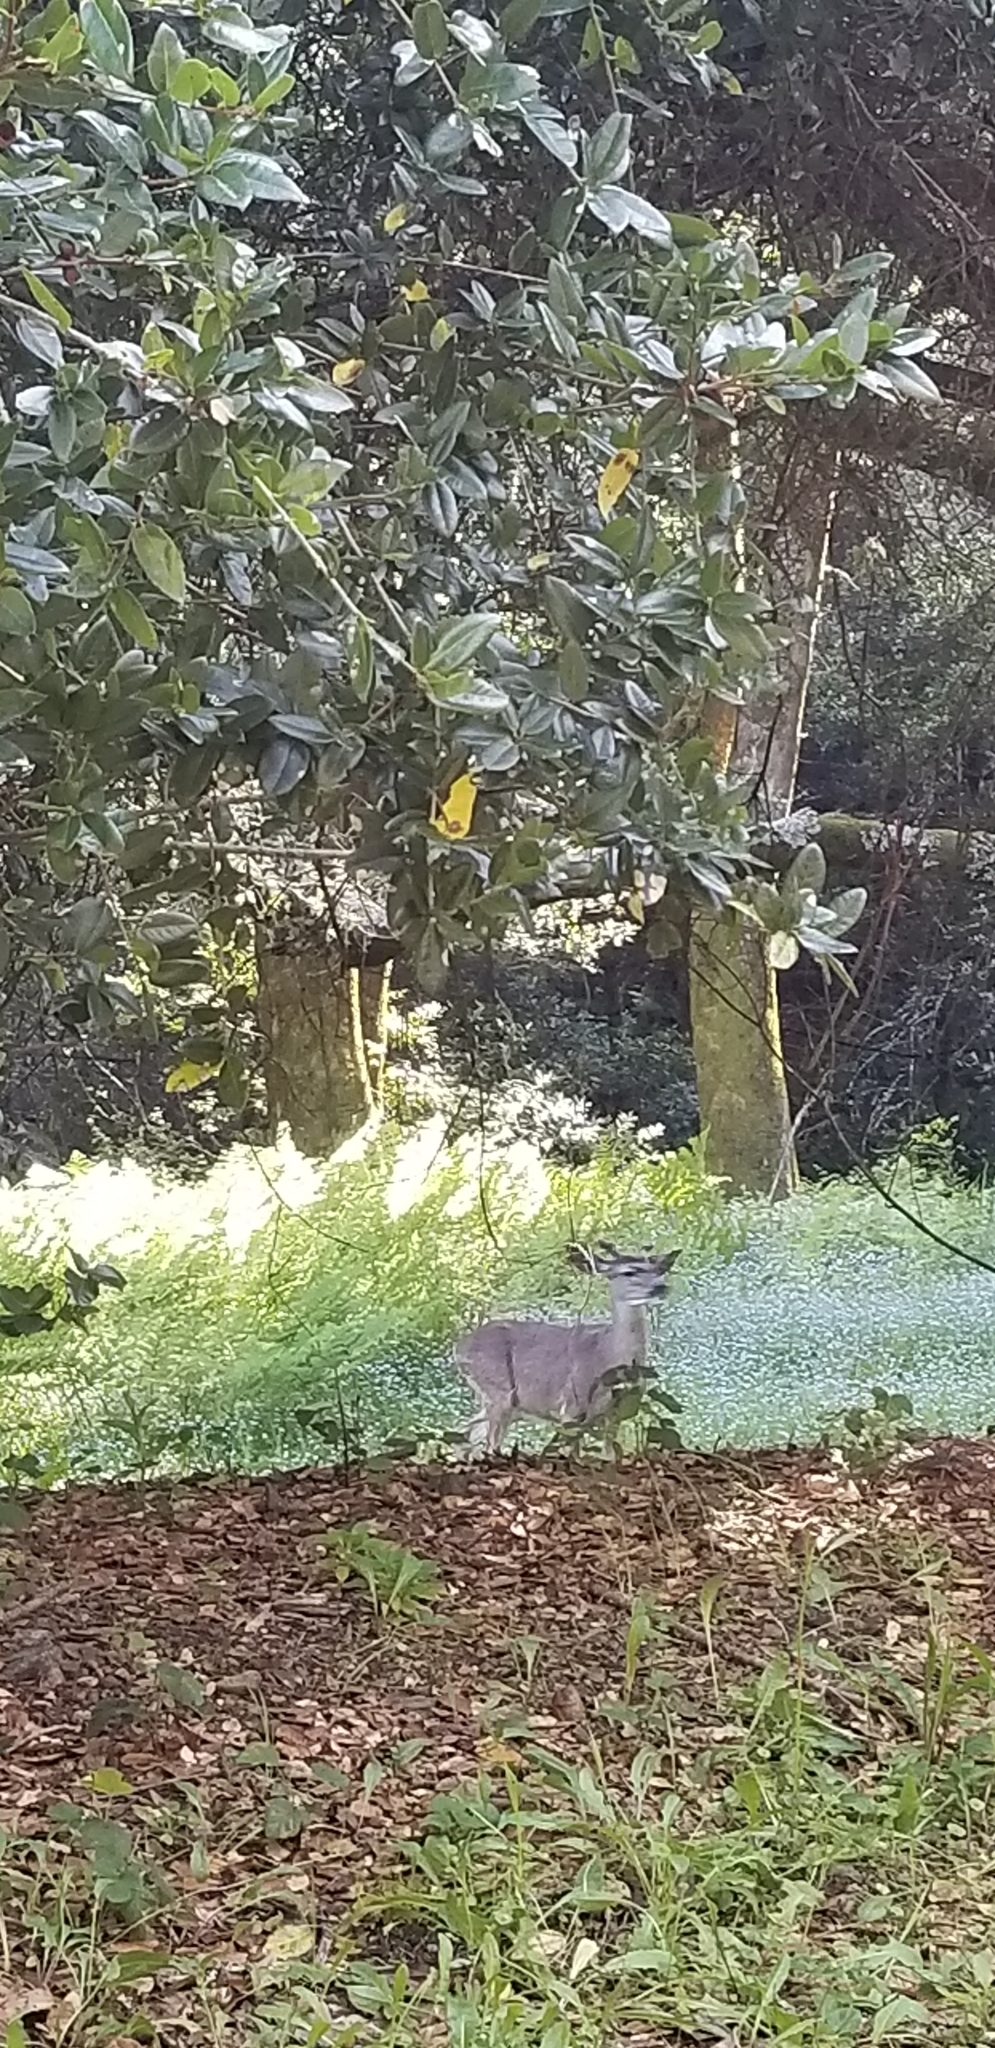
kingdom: Animalia
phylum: Chordata
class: Mammalia
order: Artiodactyla
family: Cervidae
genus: Odocoileus
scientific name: Odocoileus hemionus
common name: Mule deer
